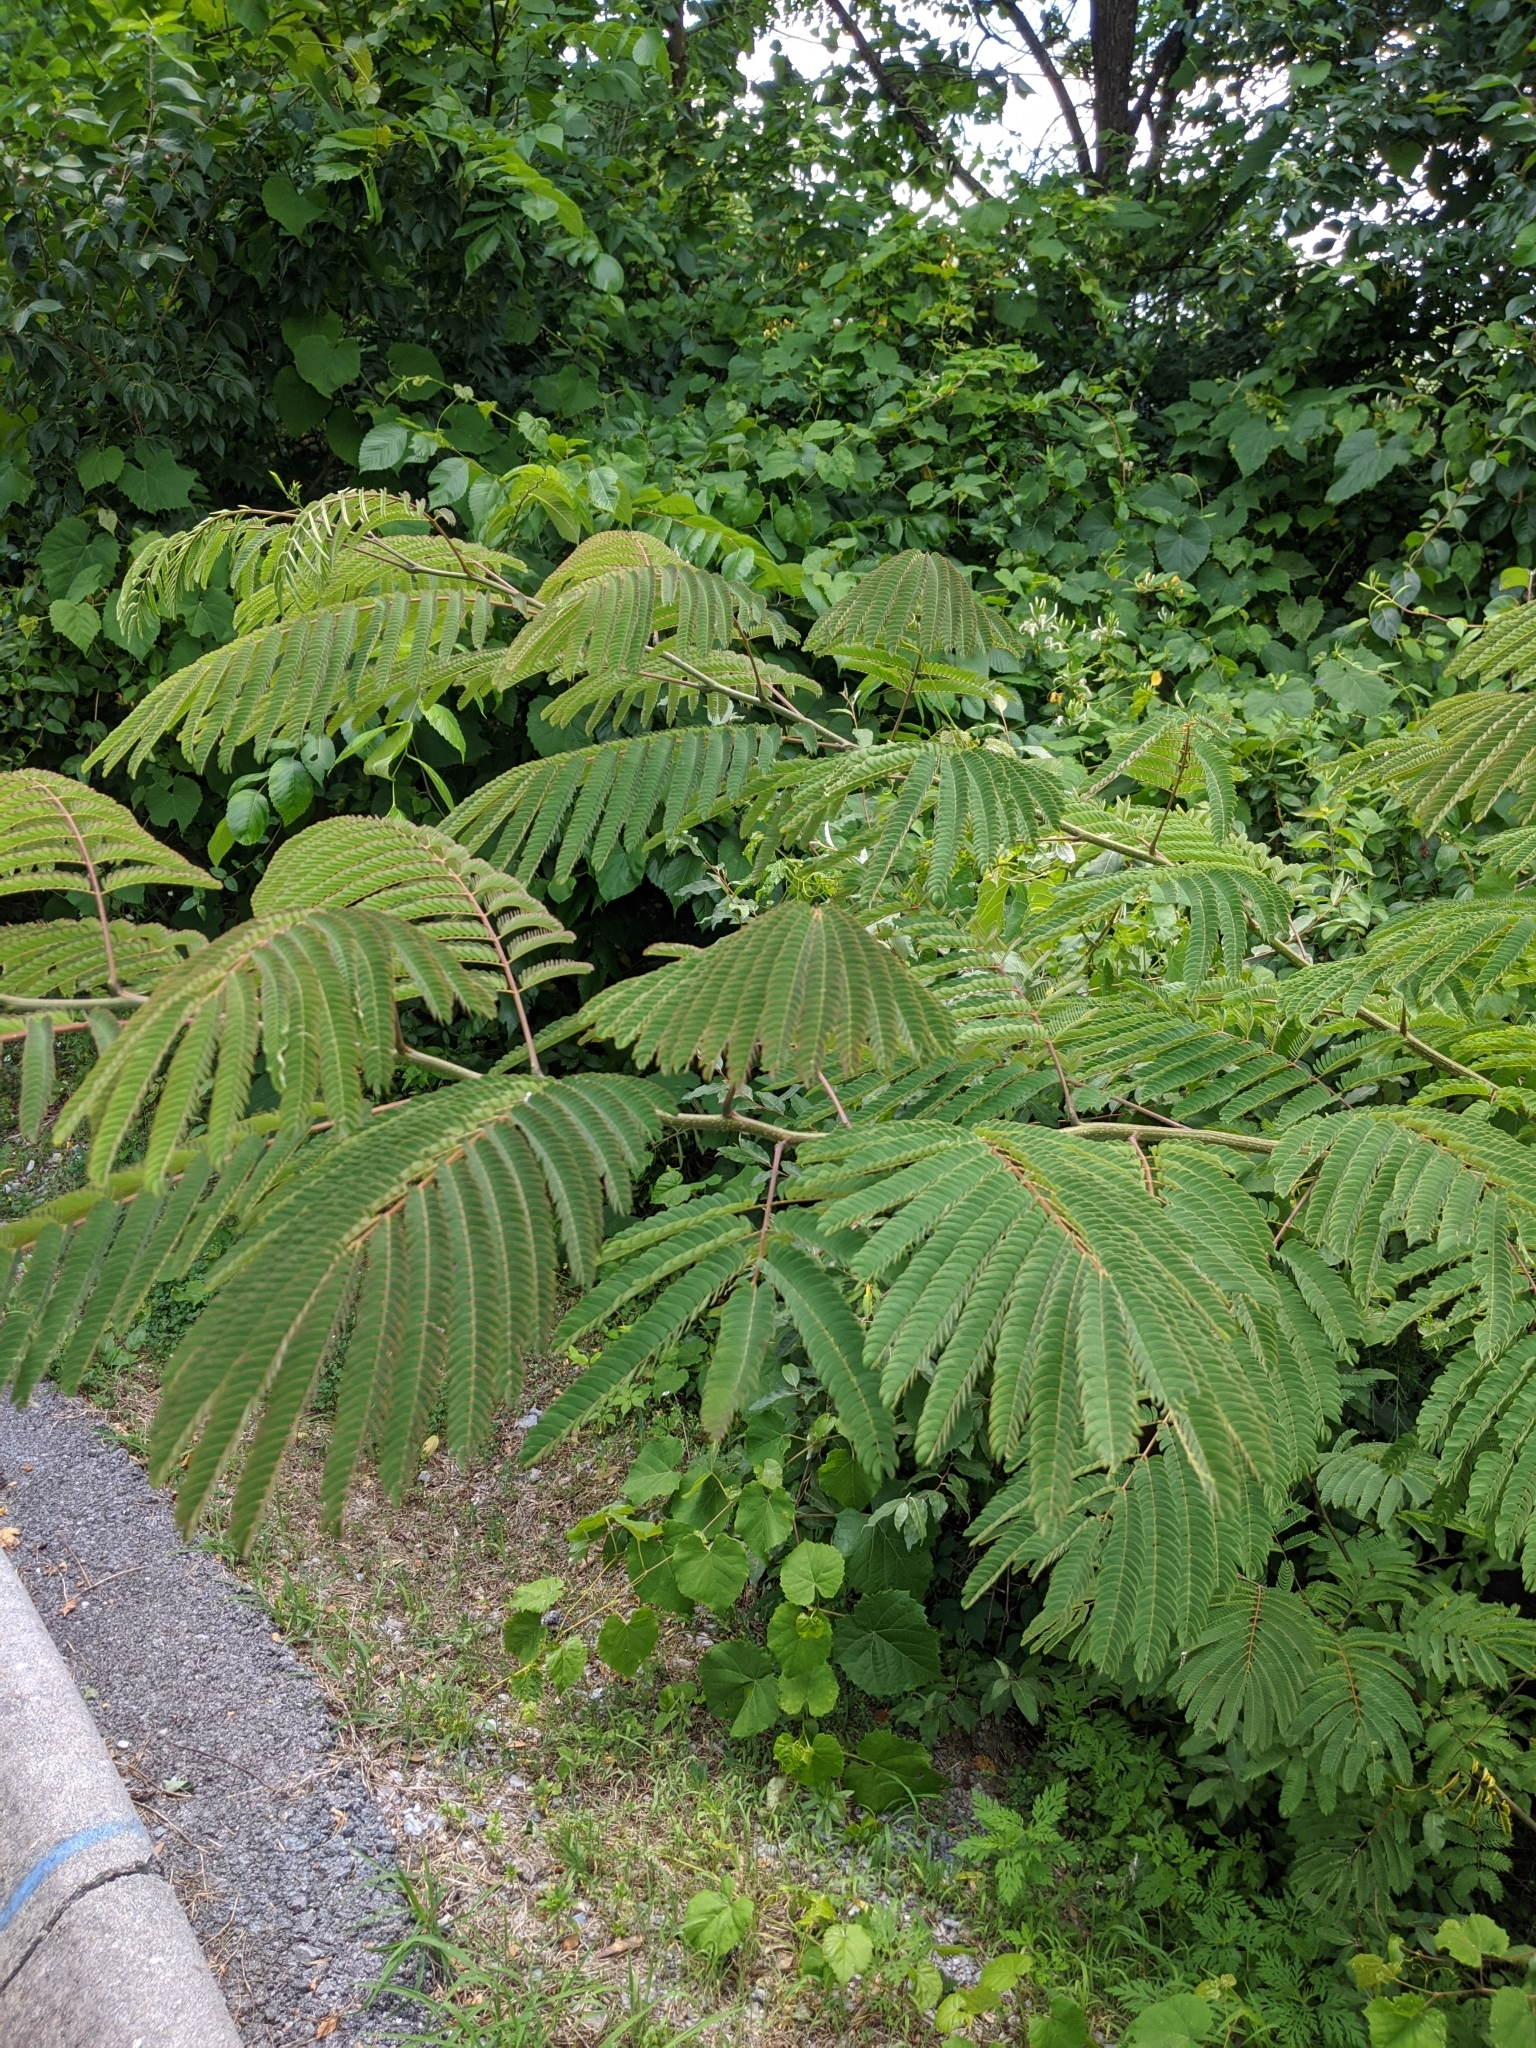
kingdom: Plantae
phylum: Tracheophyta
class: Magnoliopsida
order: Fabales
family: Fabaceae
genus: Albizia
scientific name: Albizia julibrissin
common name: Silktree
